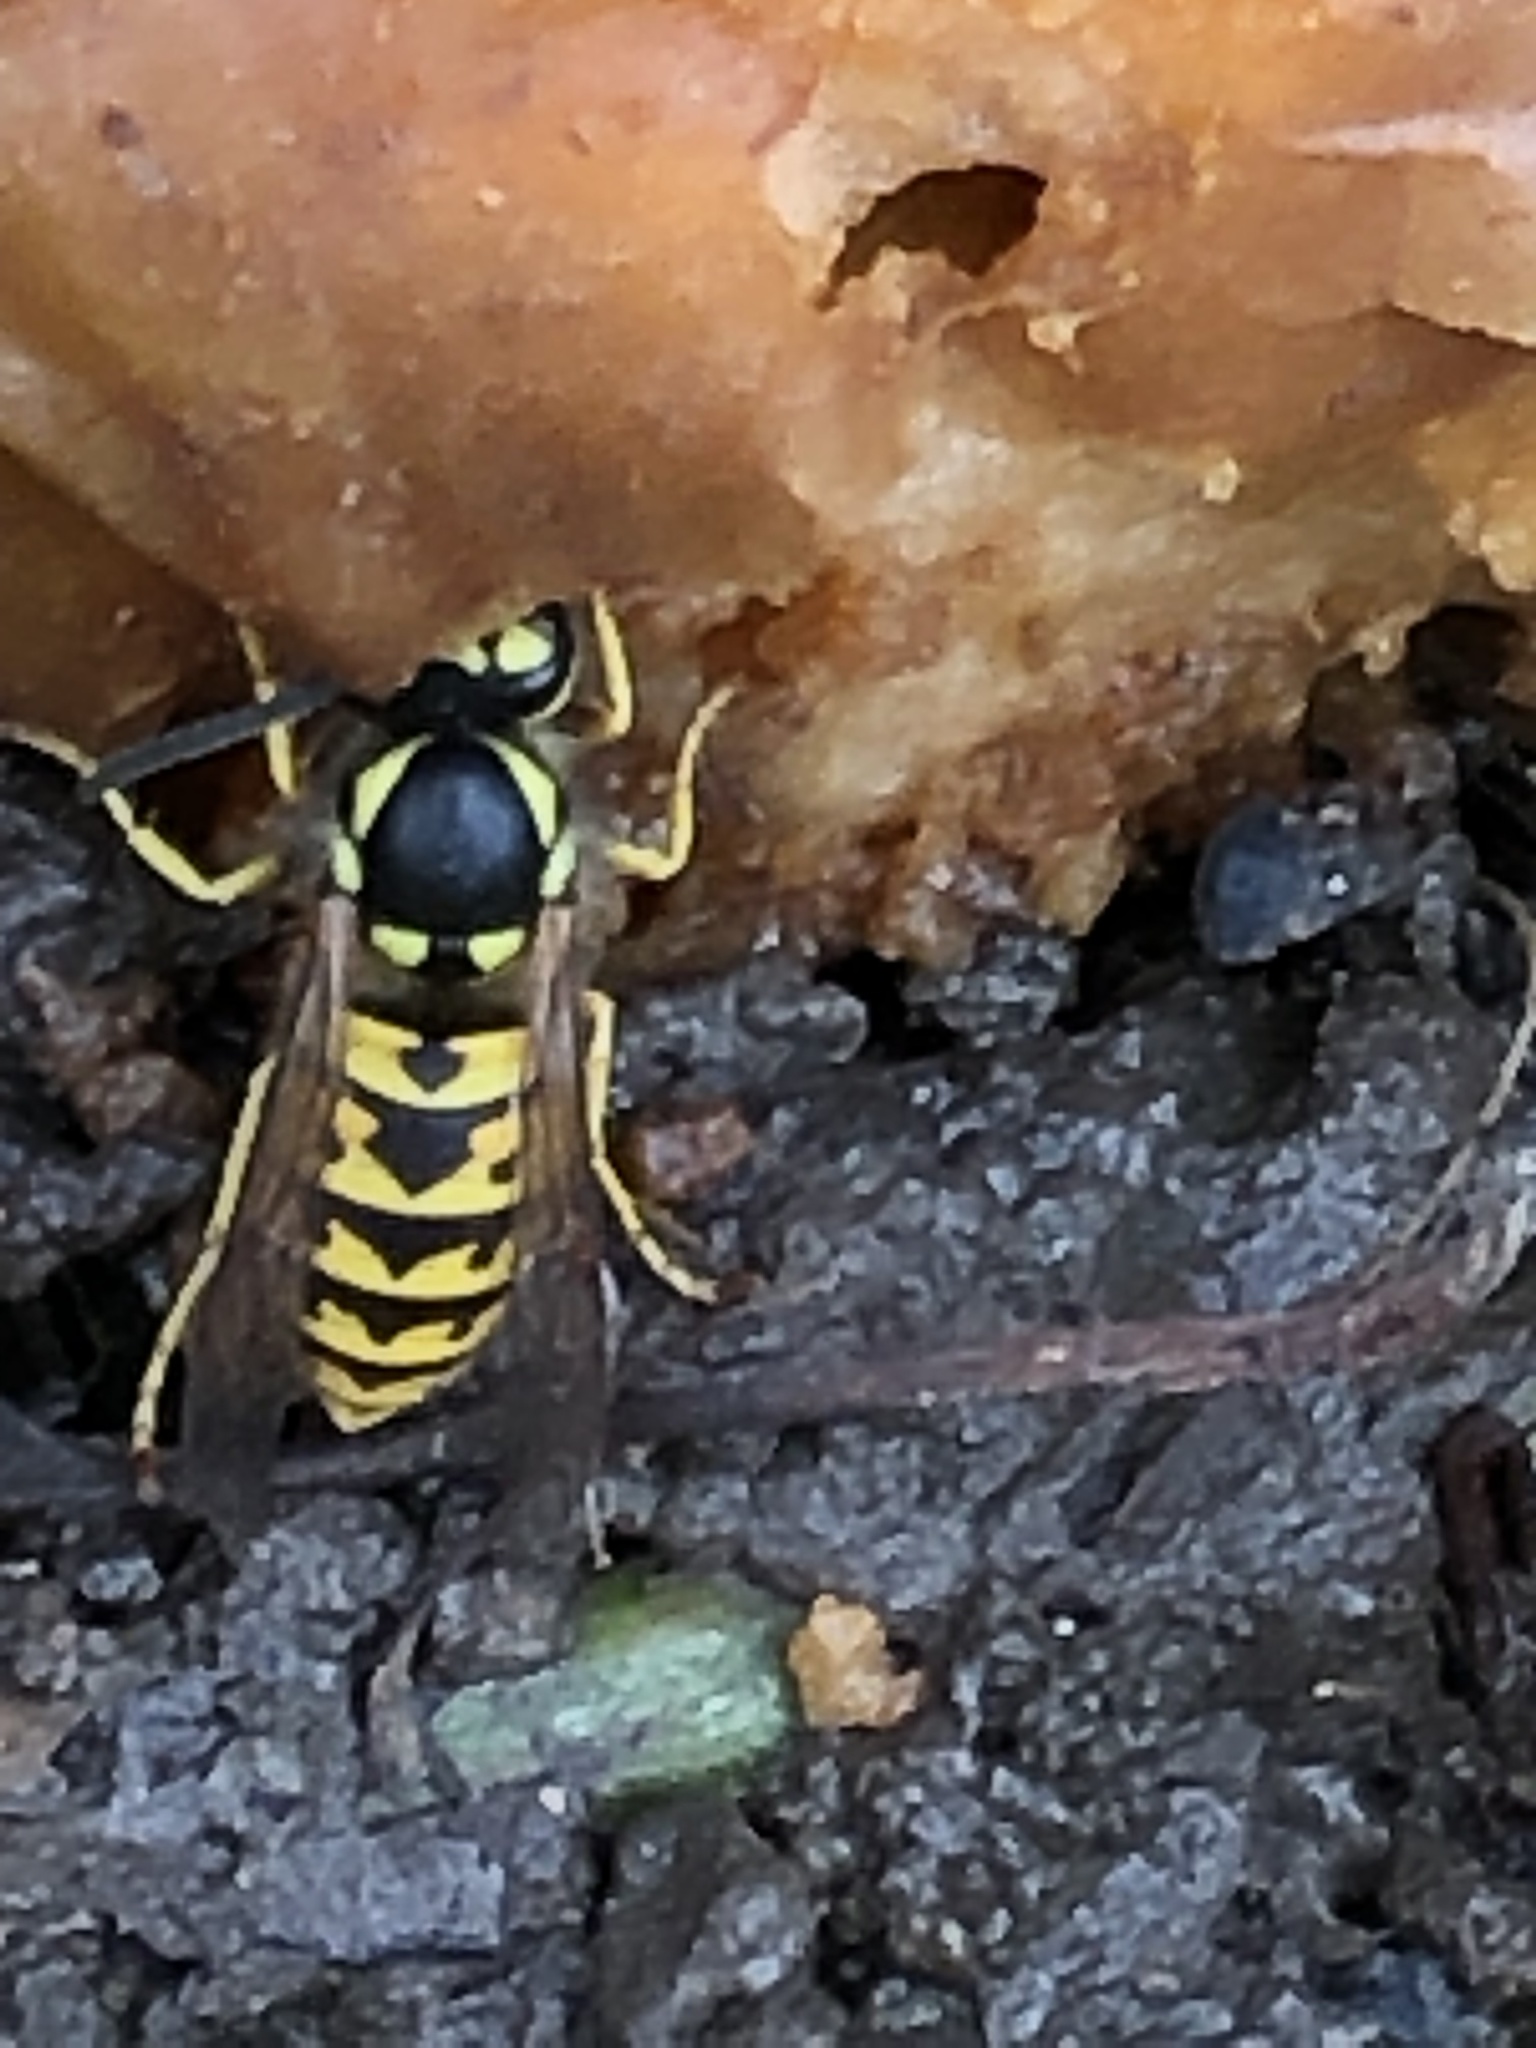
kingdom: Animalia
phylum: Arthropoda
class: Insecta
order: Hymenoptera
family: Vespidae
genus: Vespula
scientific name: Vespula germanica
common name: German wasp
